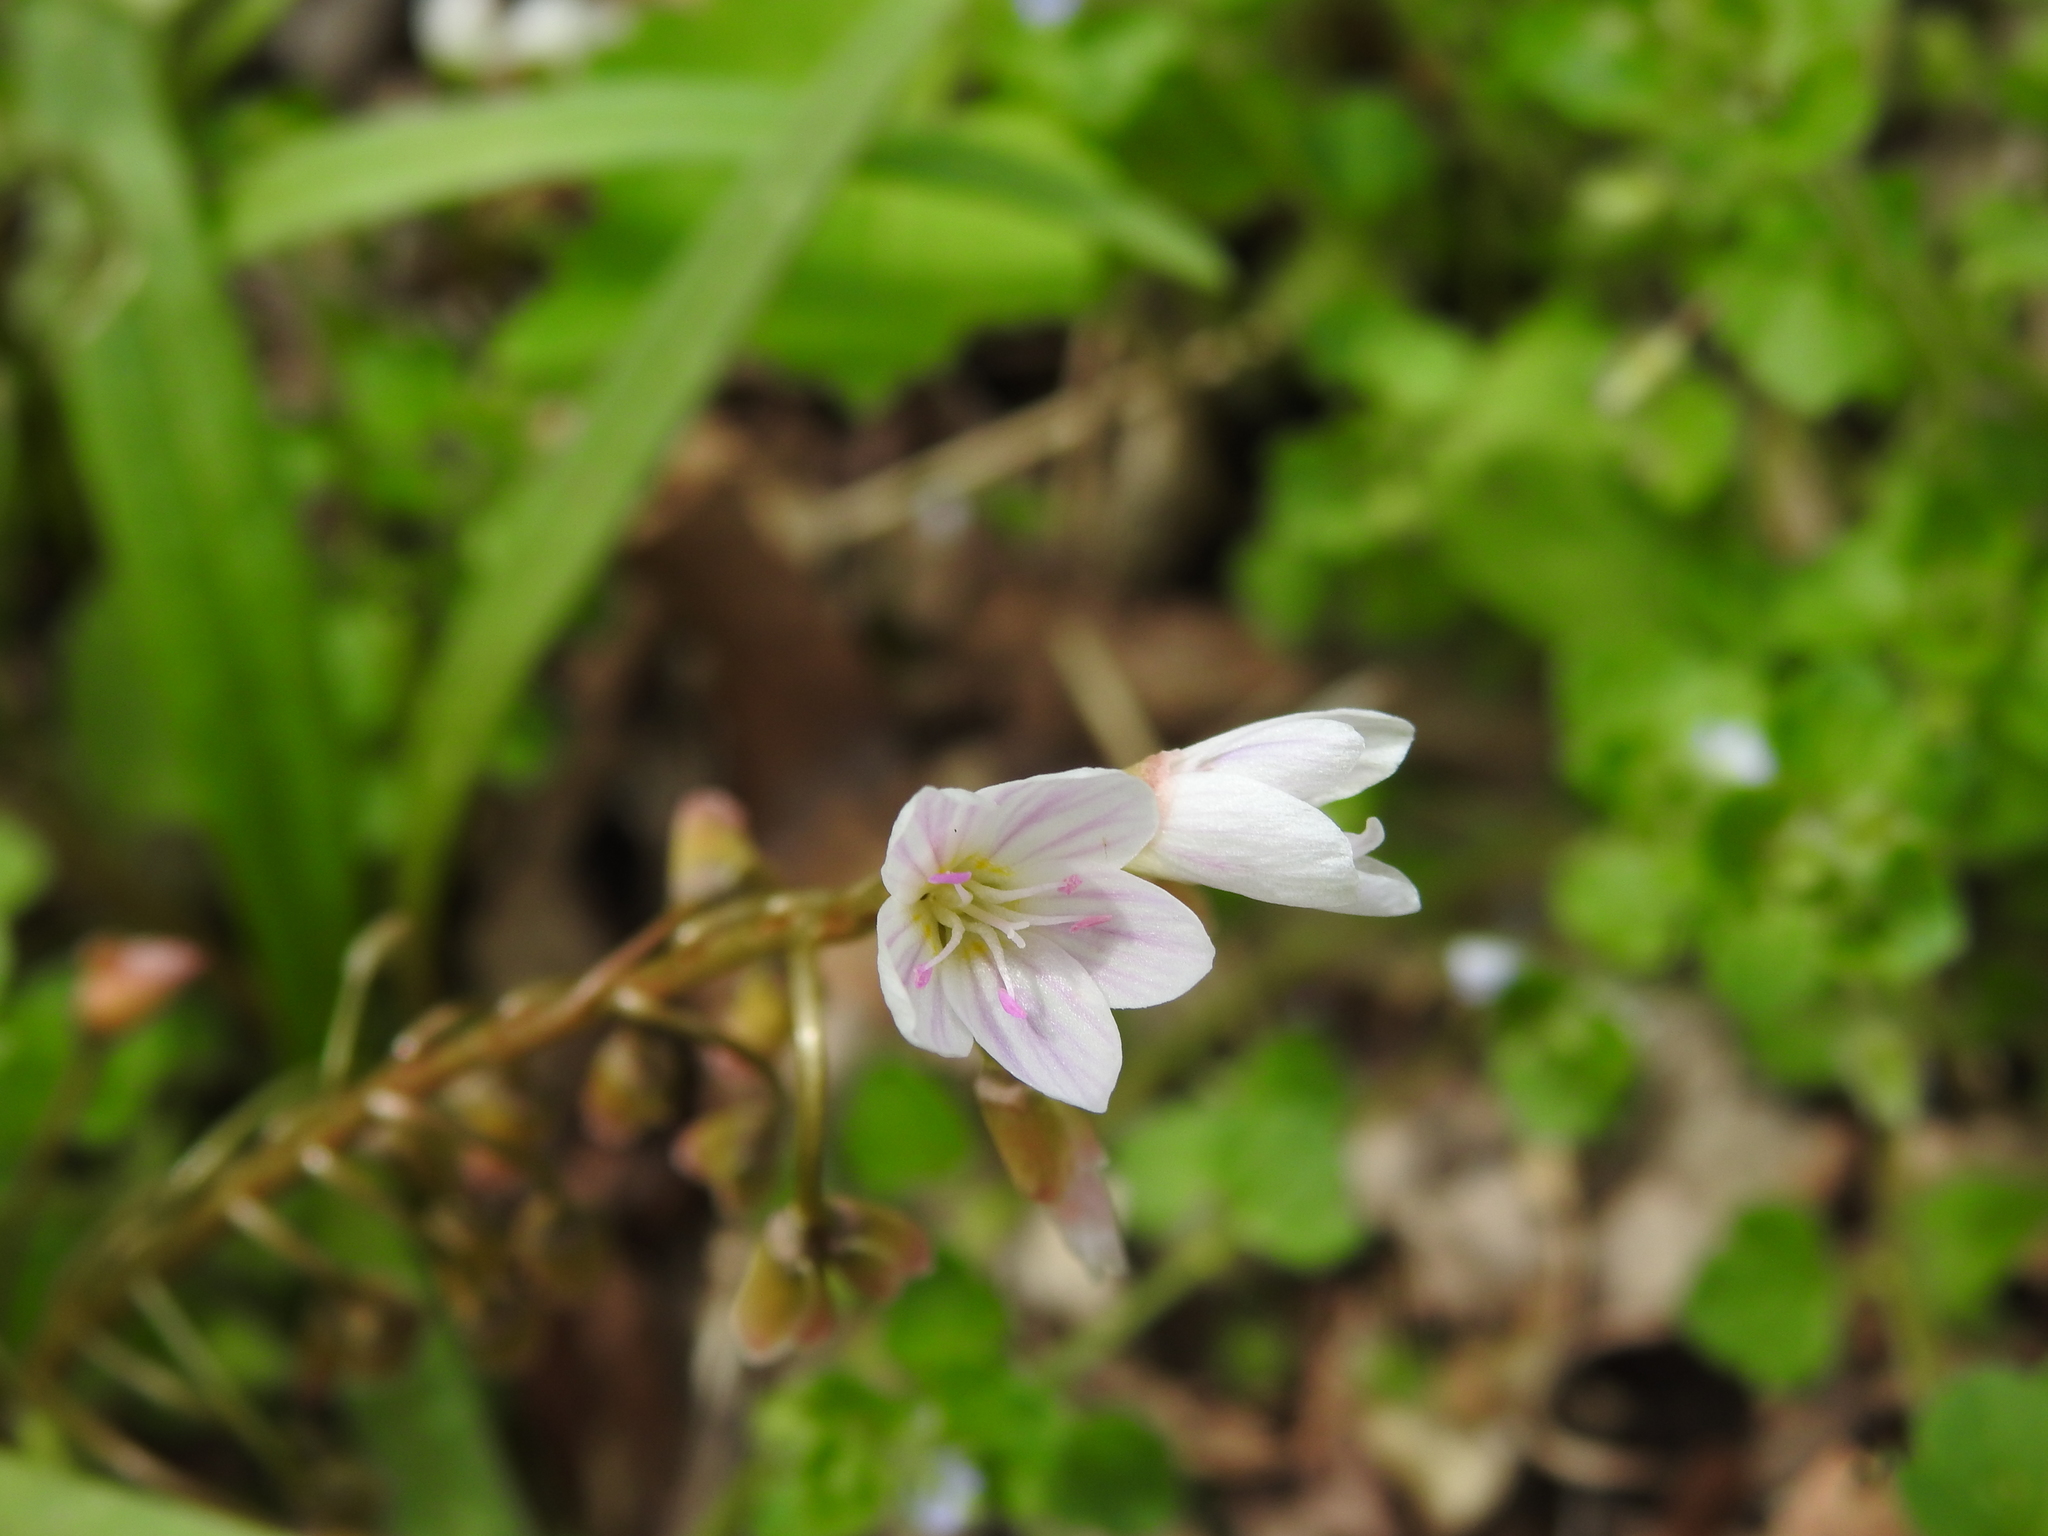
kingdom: Plantae
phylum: Tracheophyta
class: Magnoliopsida
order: Caryophyllales
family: Montiaceae
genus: Claytonia
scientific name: Claytonia virginica
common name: Virginia springbeauty
